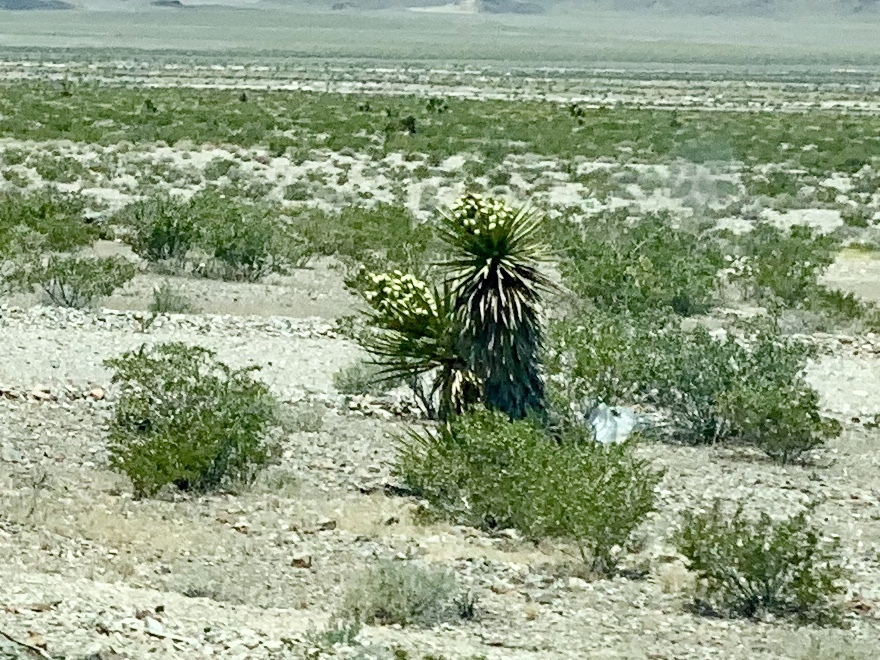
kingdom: Plantae
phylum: Tracheophyta
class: Liliopsida
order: Asparagales
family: Asparagaceae
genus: Yucca
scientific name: Yucca schidigera
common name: Mojave yucca
